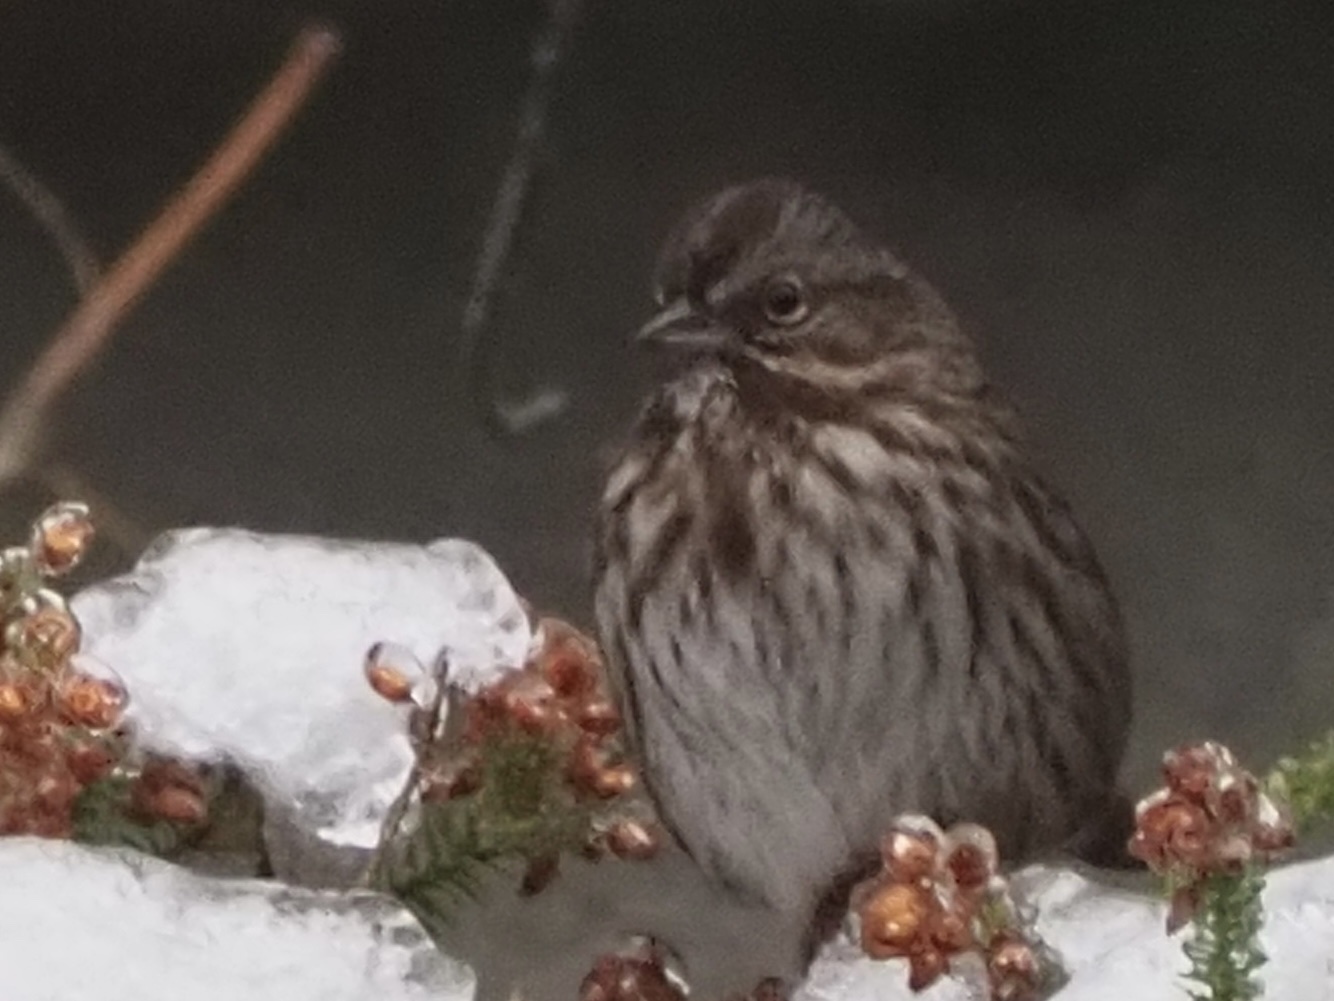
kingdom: Animalia
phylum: Chordata
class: Aves
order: Passeriformes
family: Passerellidae
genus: Melospiza
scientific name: Melospiza melodia
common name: Song sparrow
